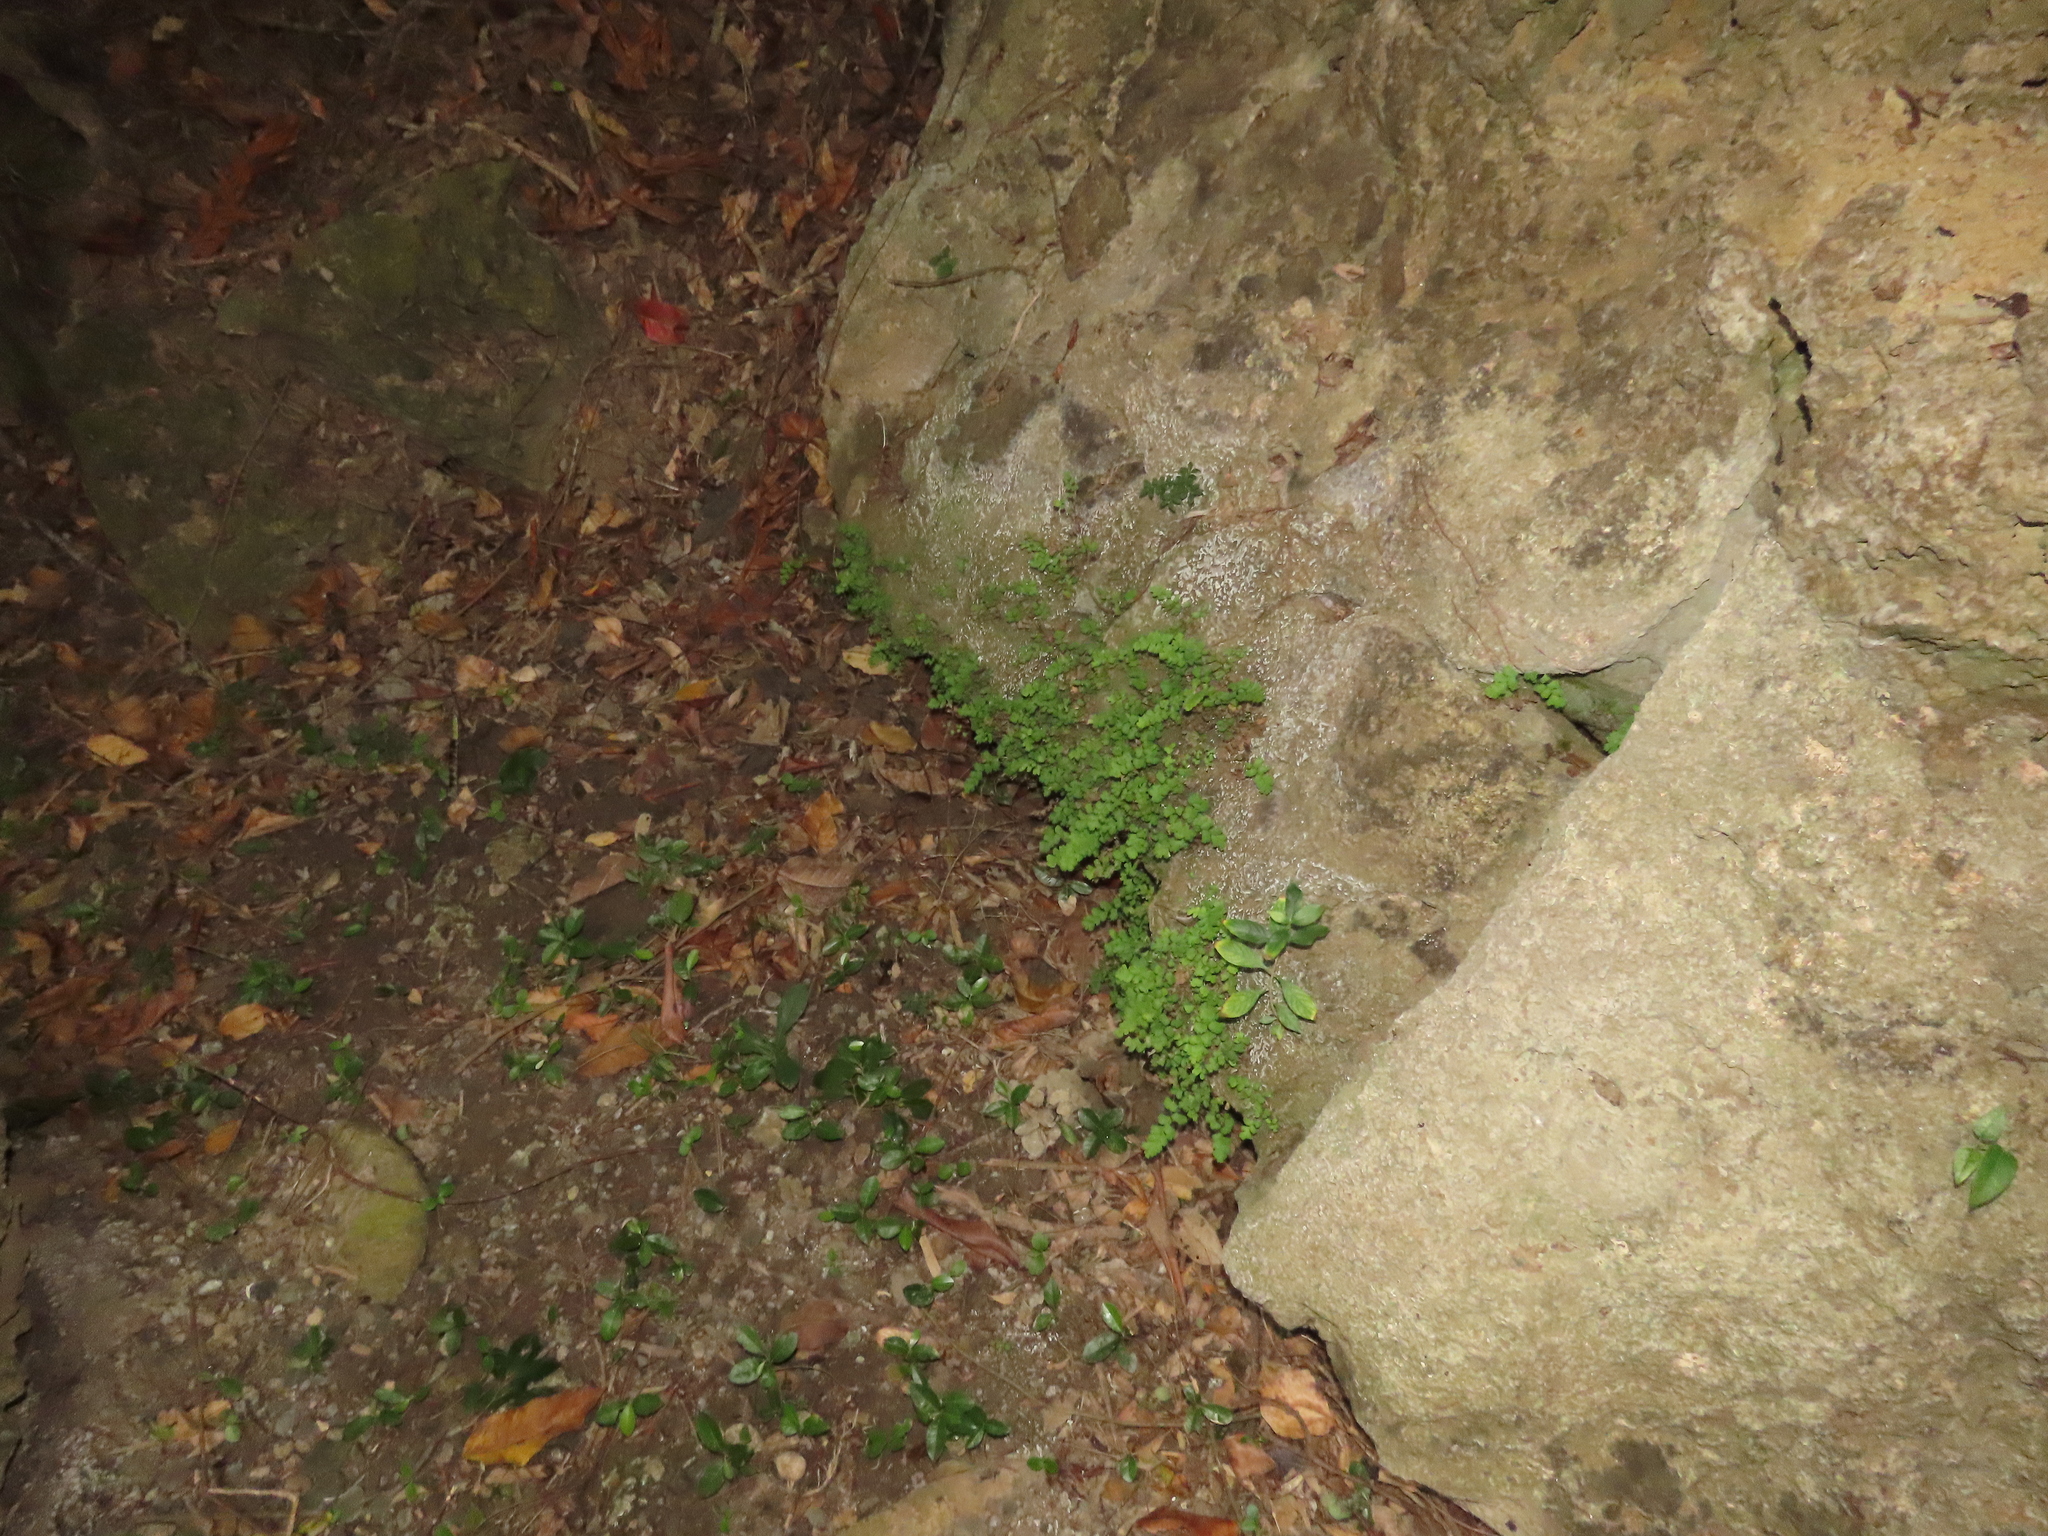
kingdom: Plantae
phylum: Tracheophyta
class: Polypodiopsida
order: Polypodiales
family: Pteridaceae
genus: Adiantum
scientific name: Adiantum capillus-veneris
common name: Maidenhair fern
